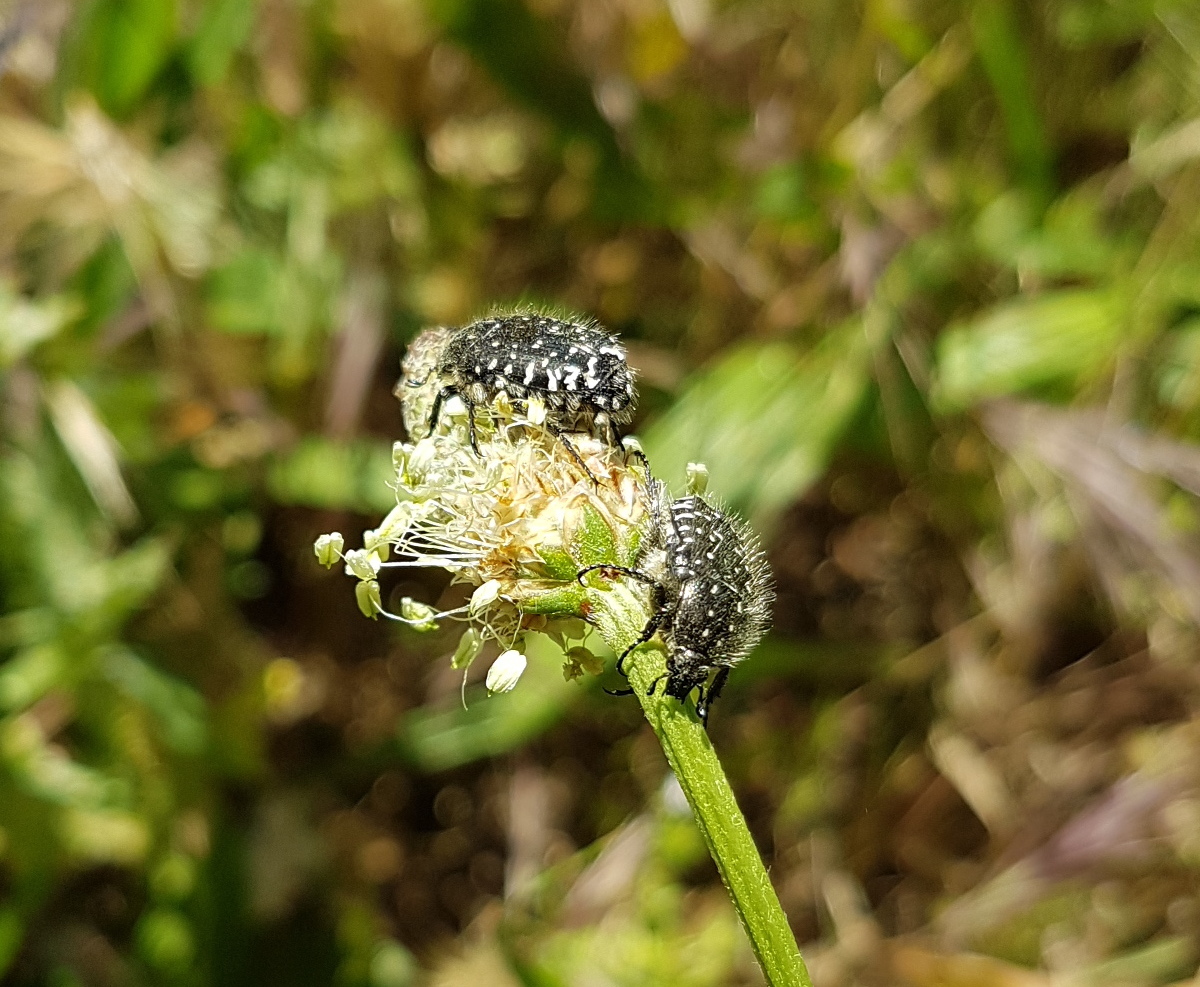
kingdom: Animalia
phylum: Arthropoda
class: Insecta
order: Coleoptera
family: Scarabaeidae
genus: Oxythyrea
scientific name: Oxythyrea funesta
